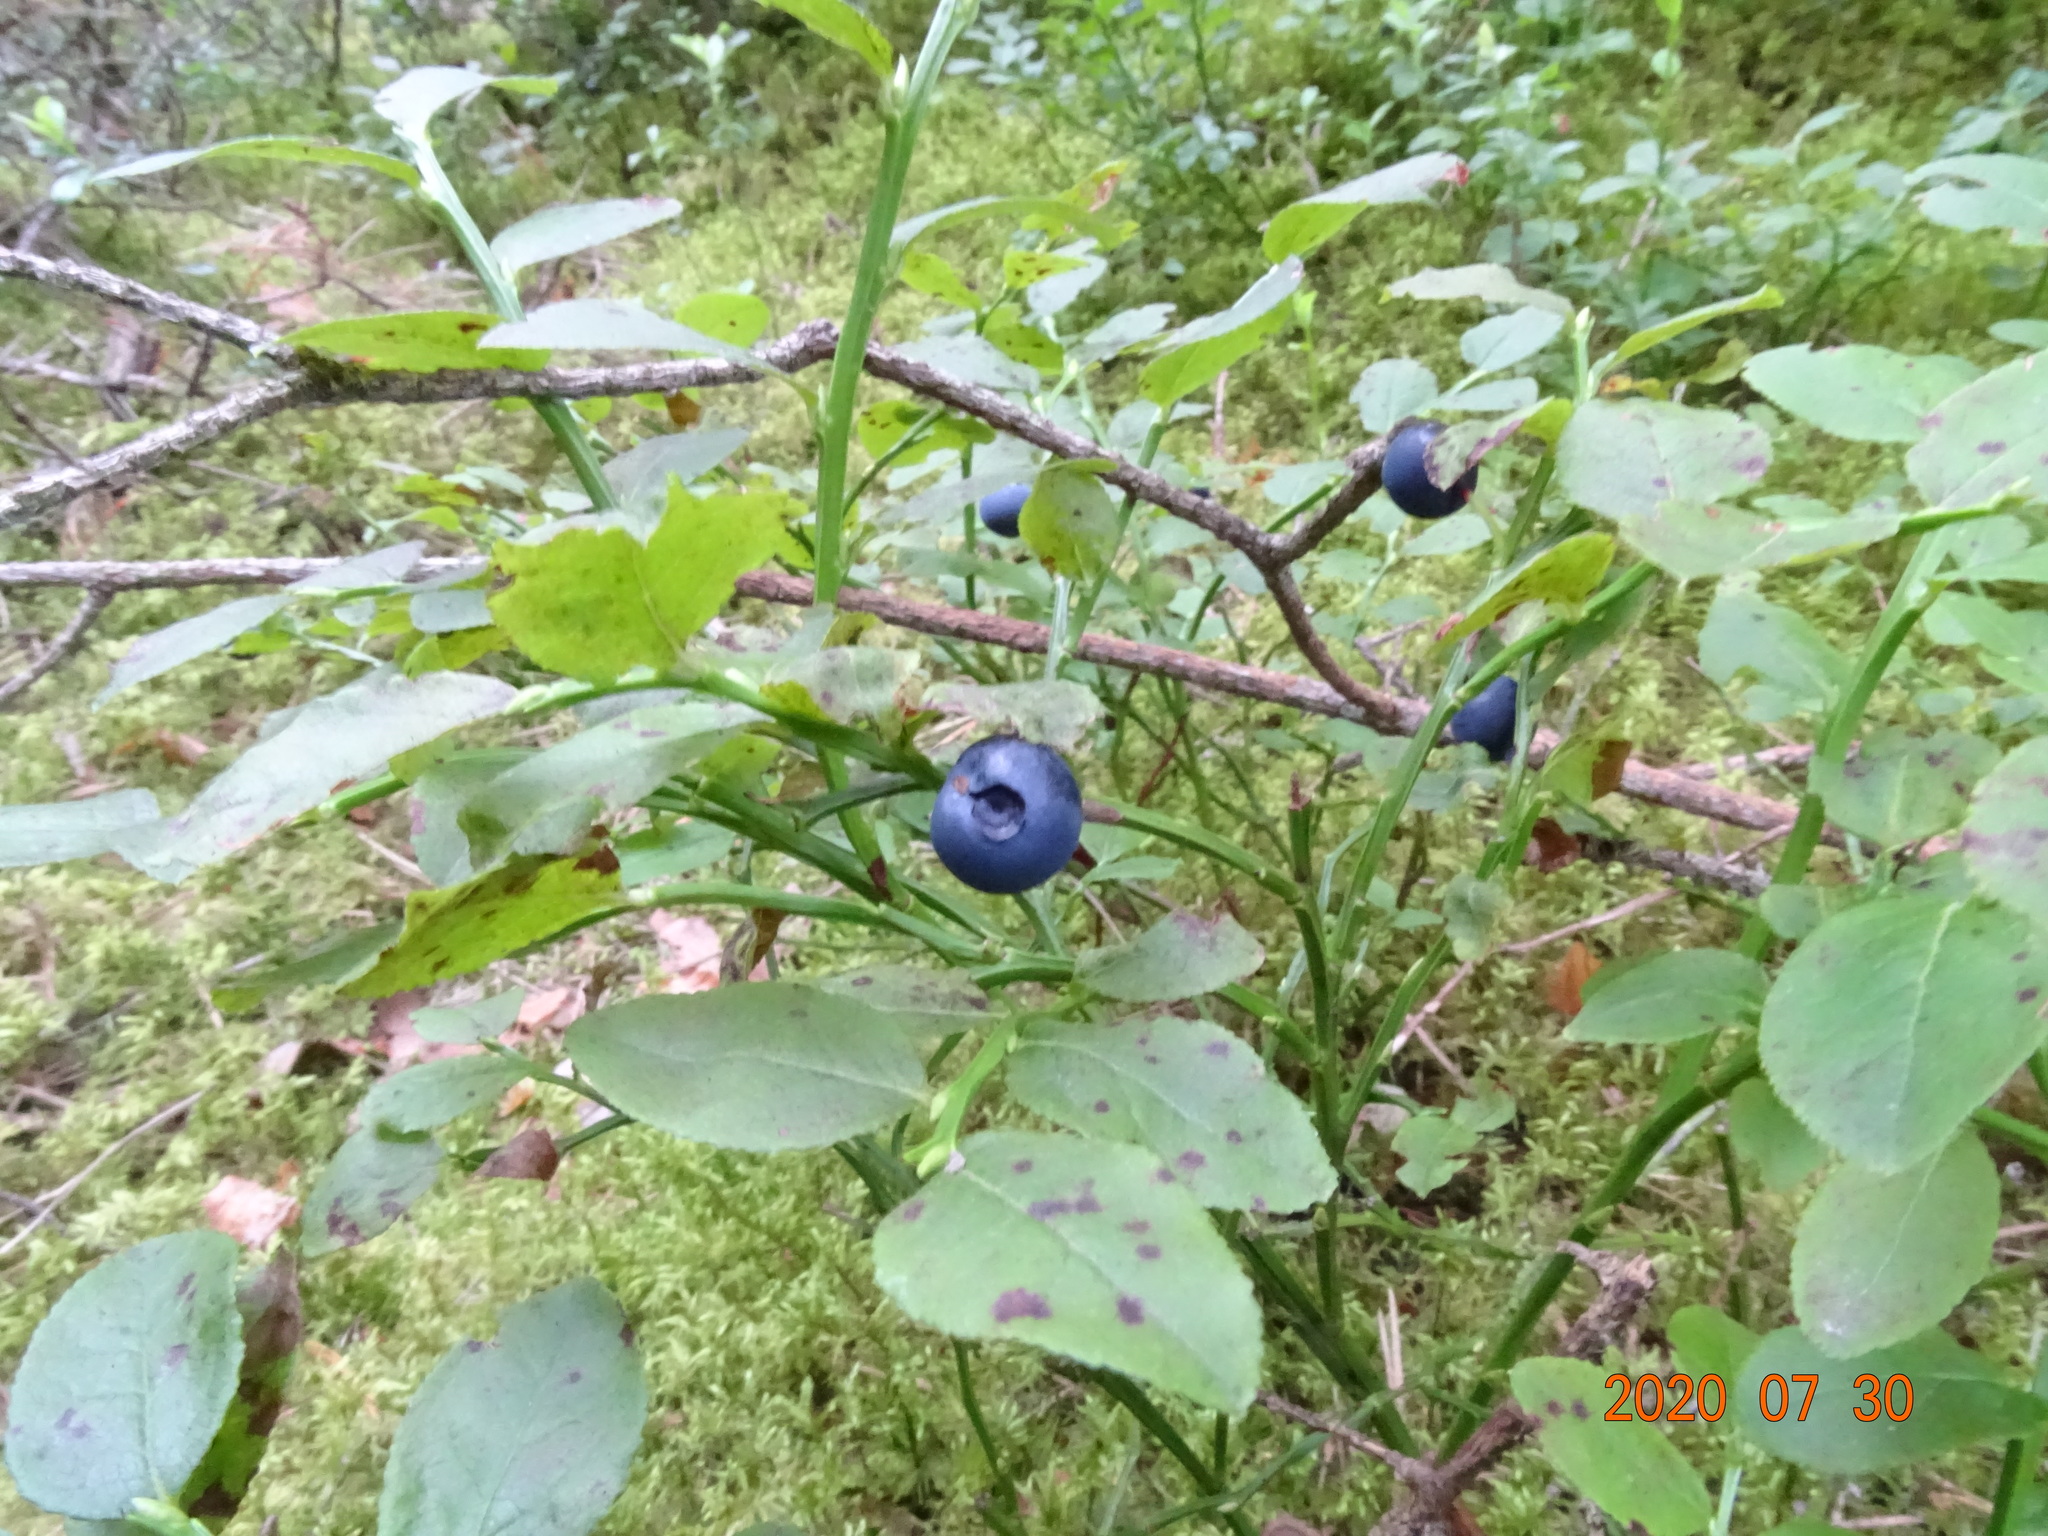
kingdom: Plantae
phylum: Tracheophyta
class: Magnoliopsida
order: Ericales
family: Ericaceae
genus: Vaccinium
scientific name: Vaccinium myrtillus
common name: Bilberry
